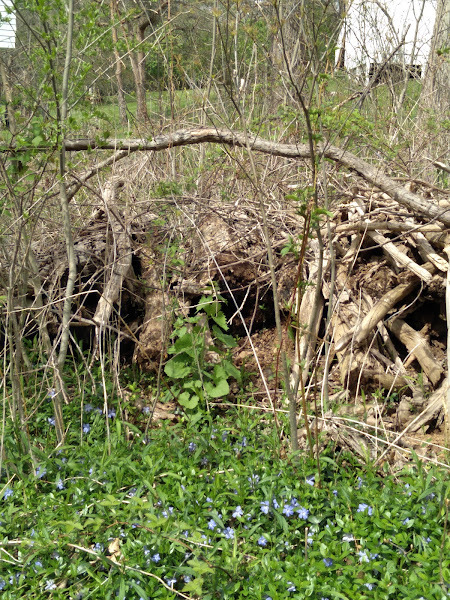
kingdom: Plantae
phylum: Tracheophyta
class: Magnoliopsida
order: Gentianales
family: Apocynaceae
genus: Vinca
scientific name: Vinca minor
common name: Lesser periwinkle
